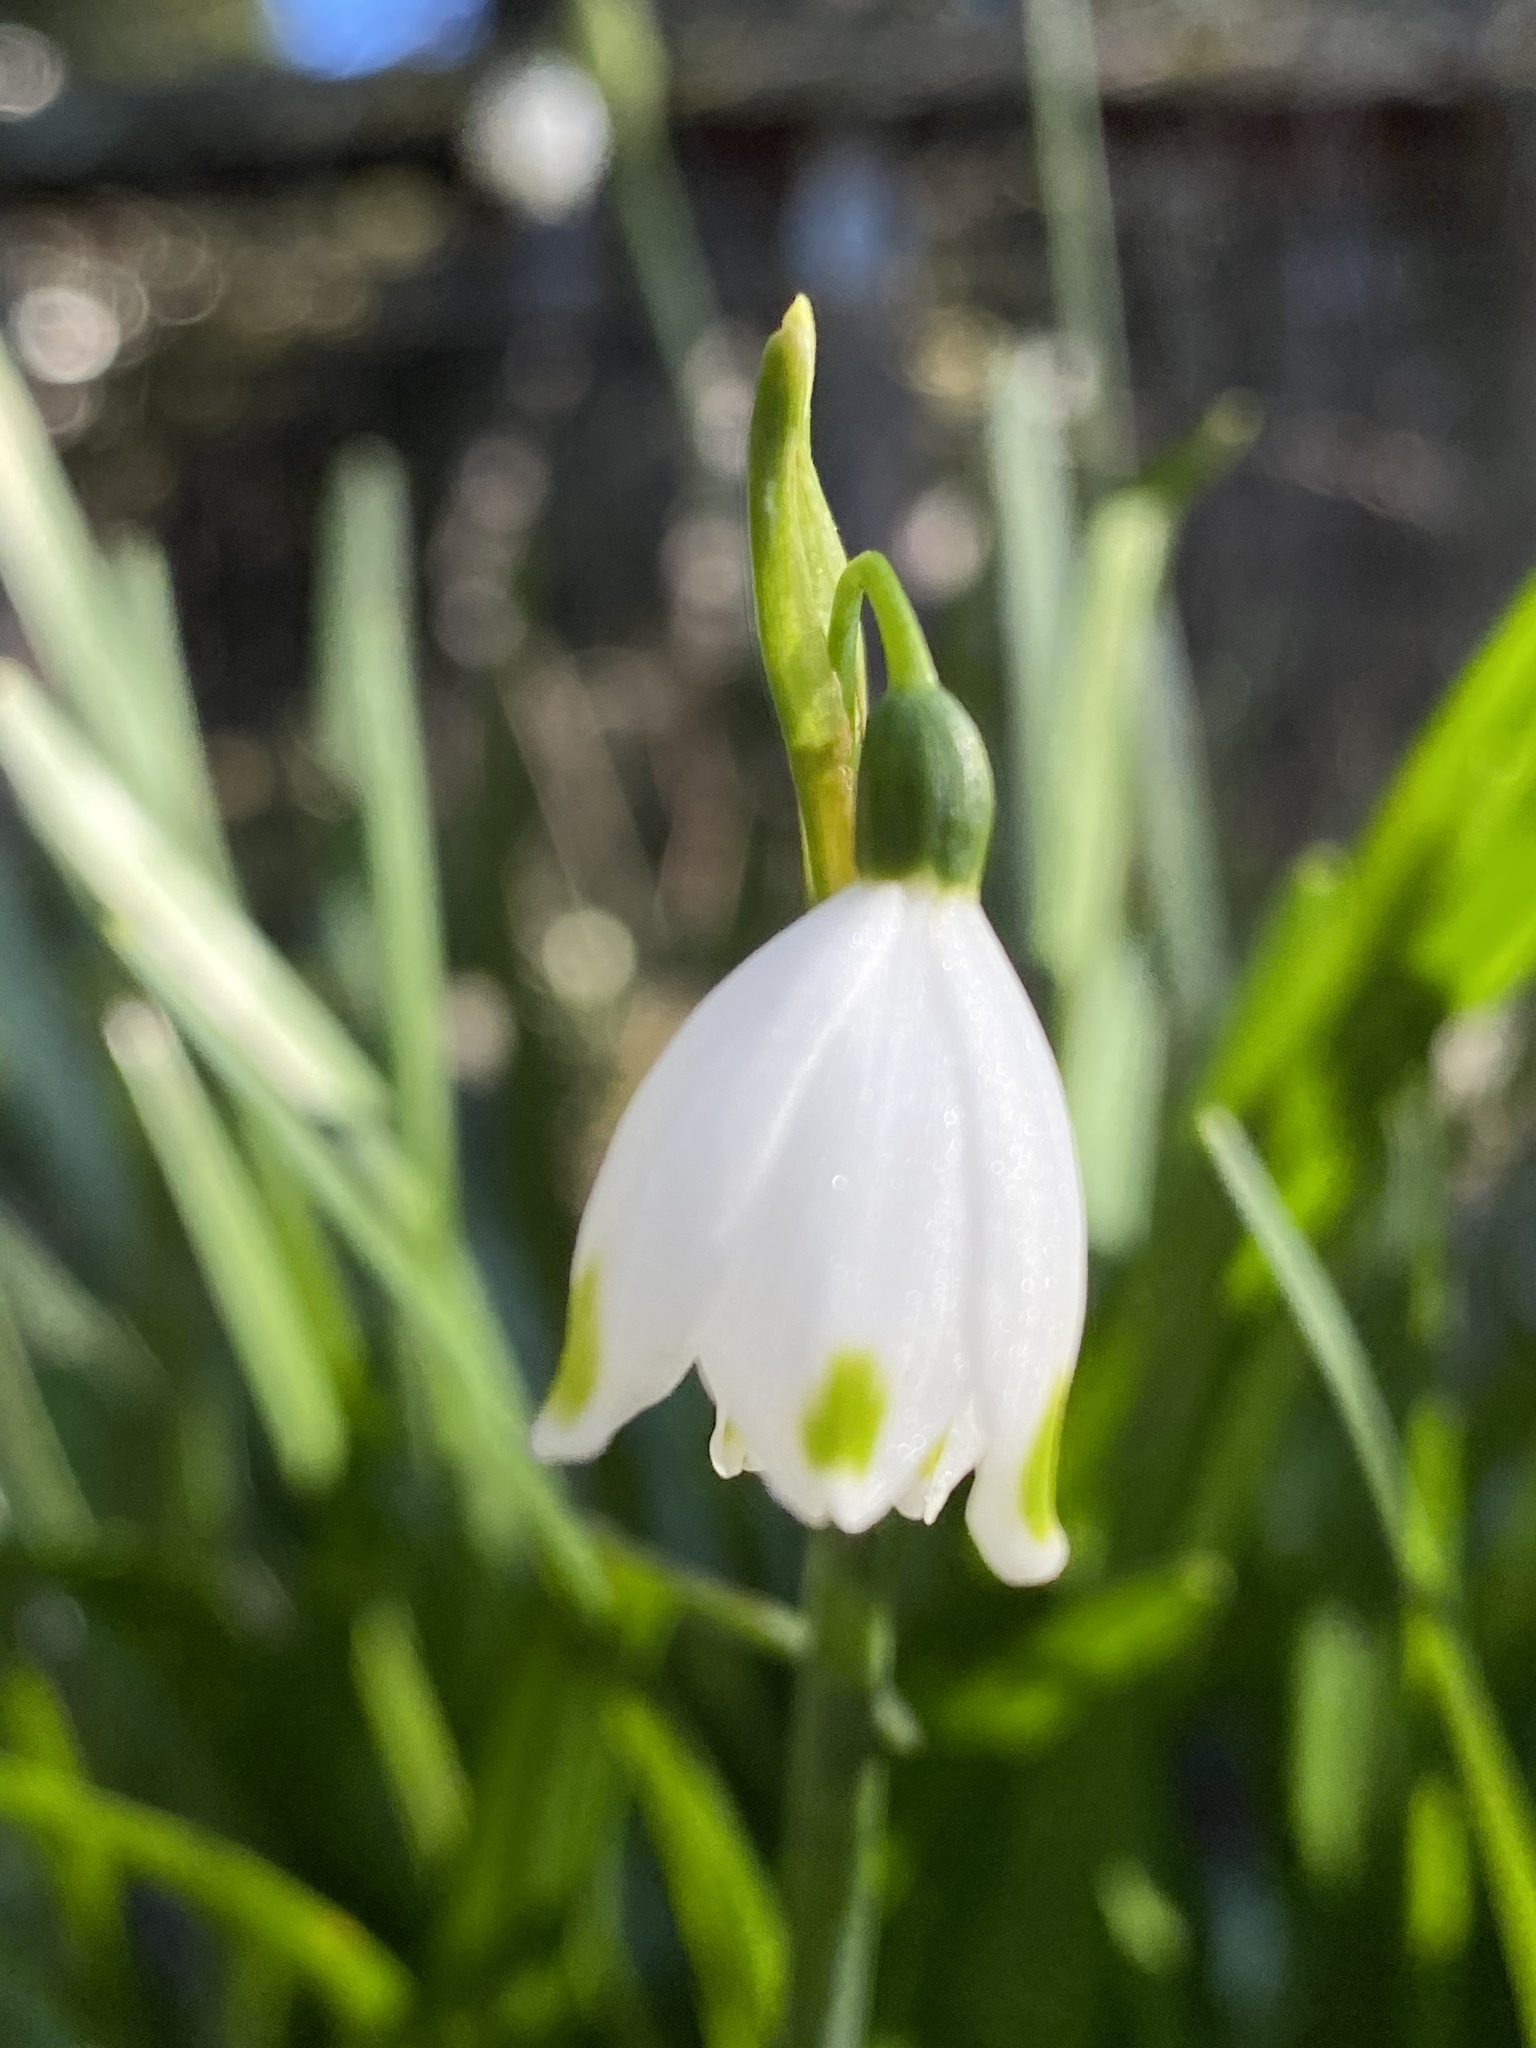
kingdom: Plantae
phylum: Tracheophyta
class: Liliopsida
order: Asparagales
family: Amaryllidaceae
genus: Leucojum
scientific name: Leucojum aestivum
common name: Summer snowflake
